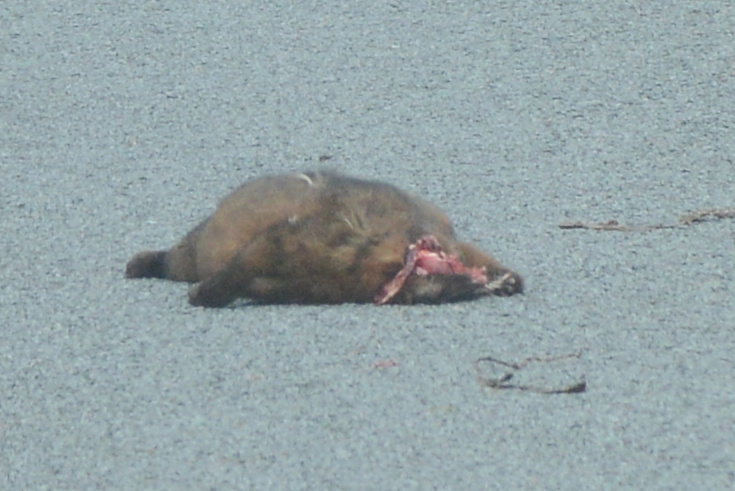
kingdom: Animalia
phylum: Chordata
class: Mammalia
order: Diprotodontia
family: Phalangeridae
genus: Trichosurus
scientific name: Trichosurus vulpecula
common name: Common brushtail
